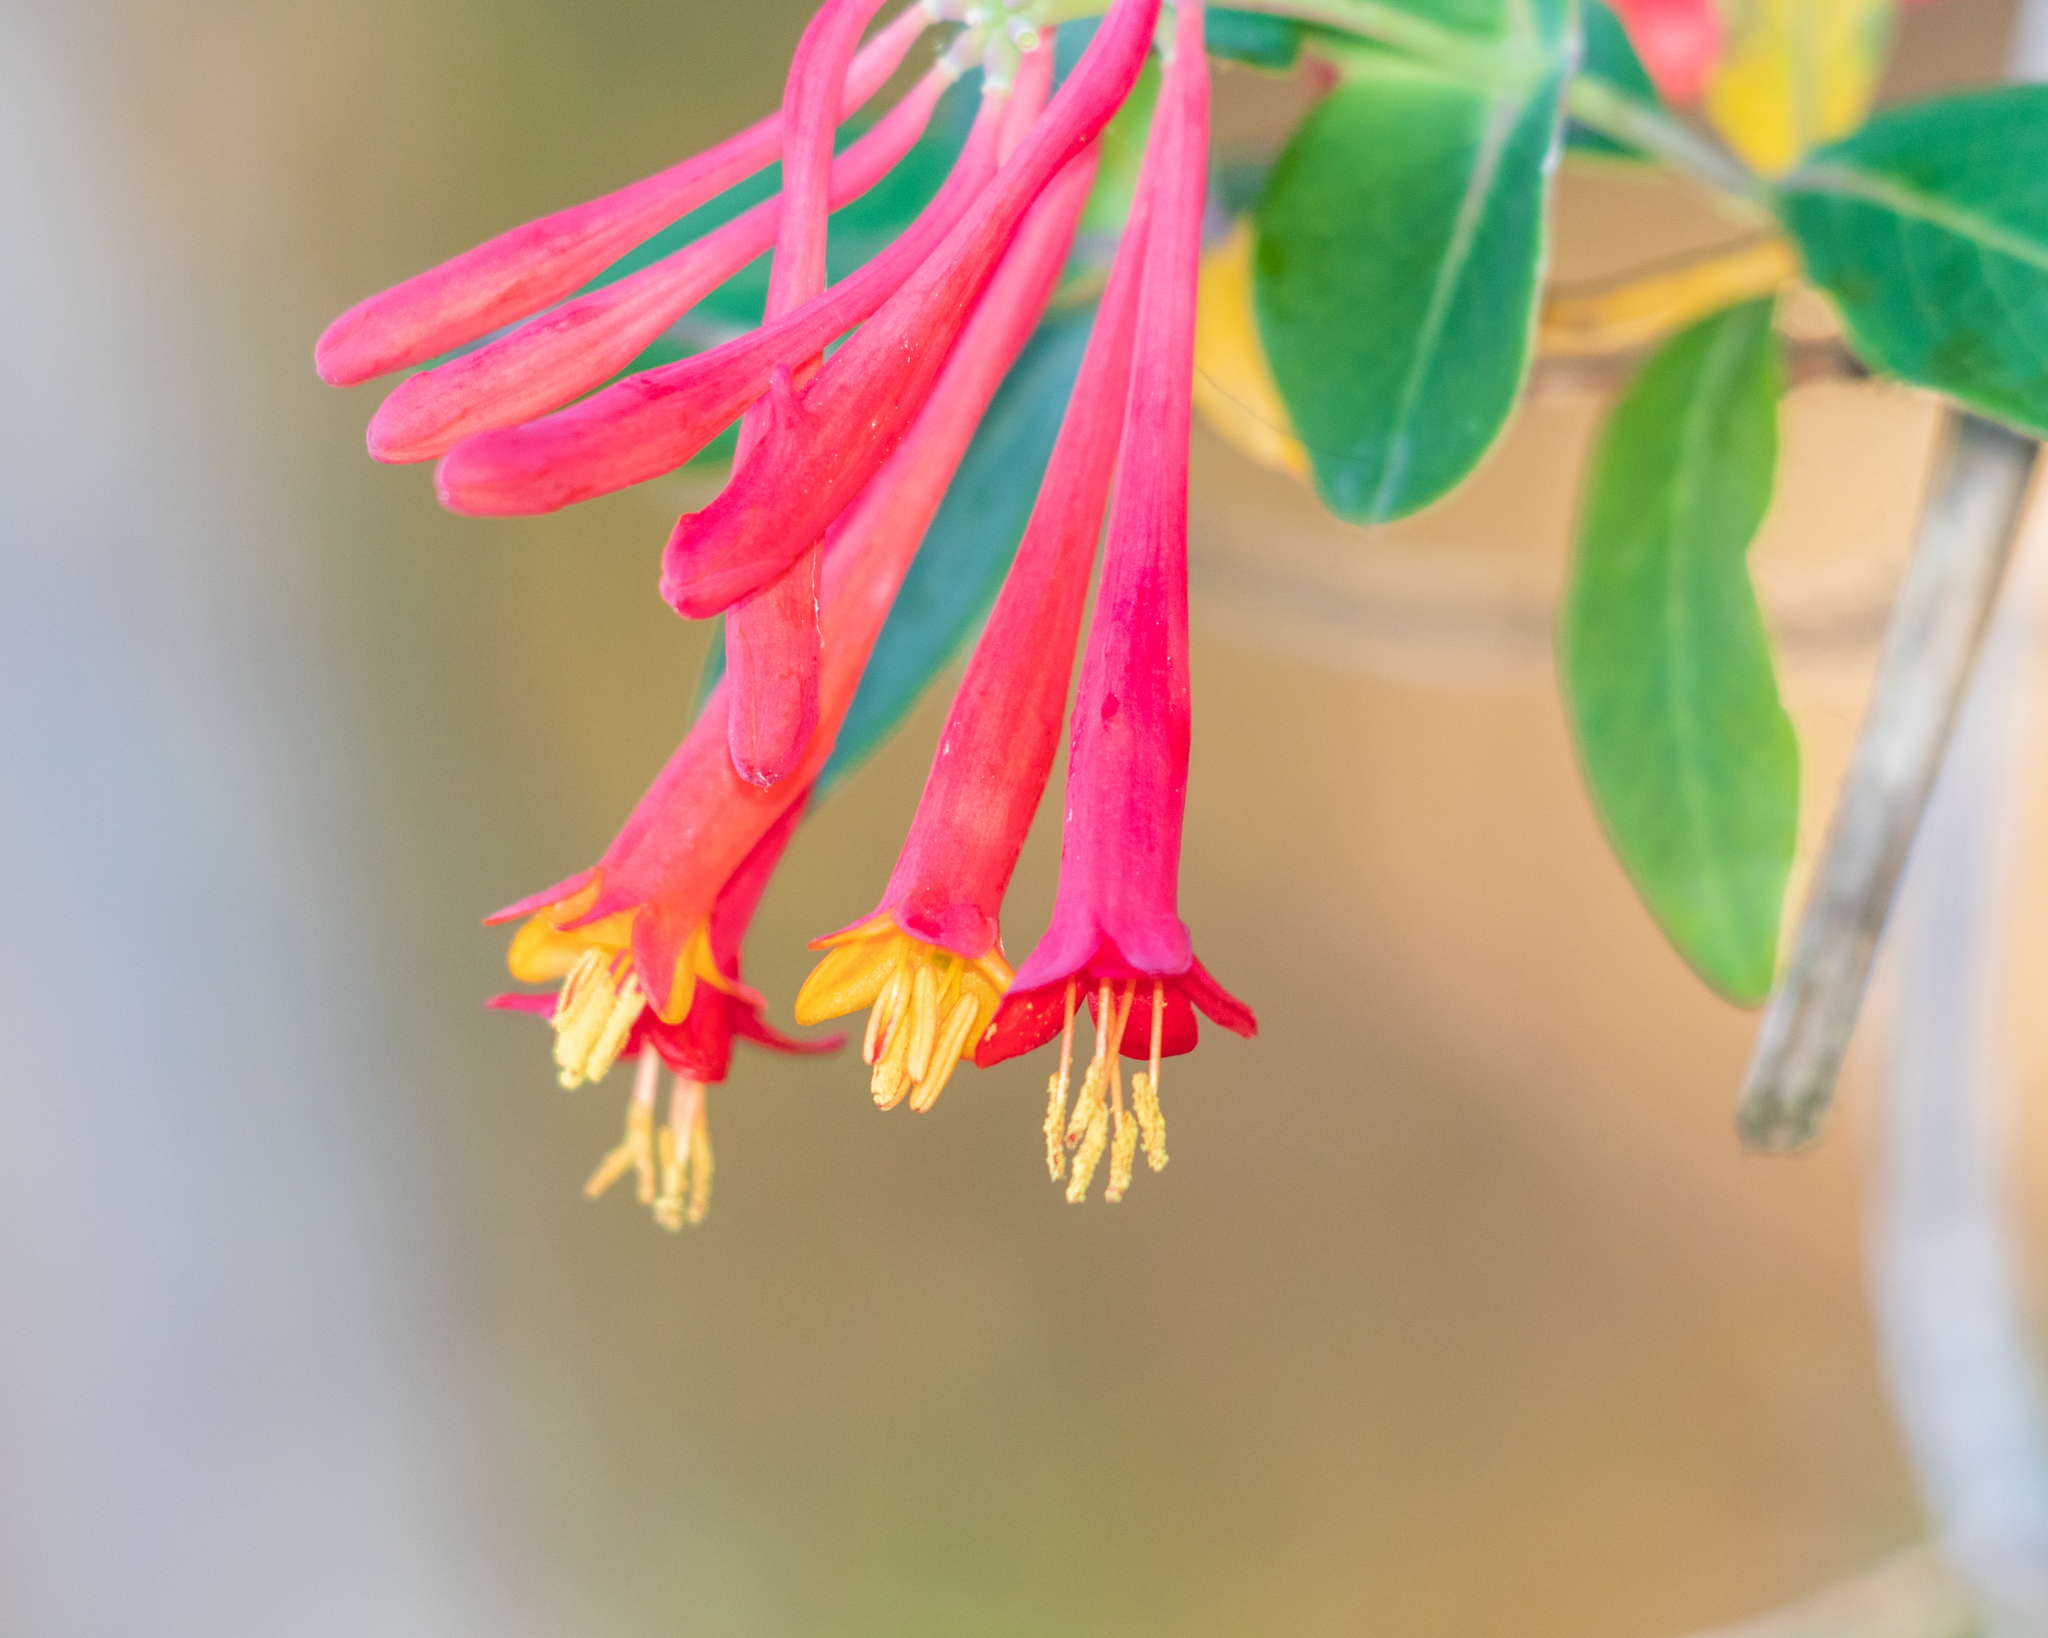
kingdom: Plantae
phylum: Tracheophyta
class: Magnoliopsida
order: Dipsacales
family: Caprifoliaceae
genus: Lonicera
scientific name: Lonicera sempervirens
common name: Coral honeysuckle
